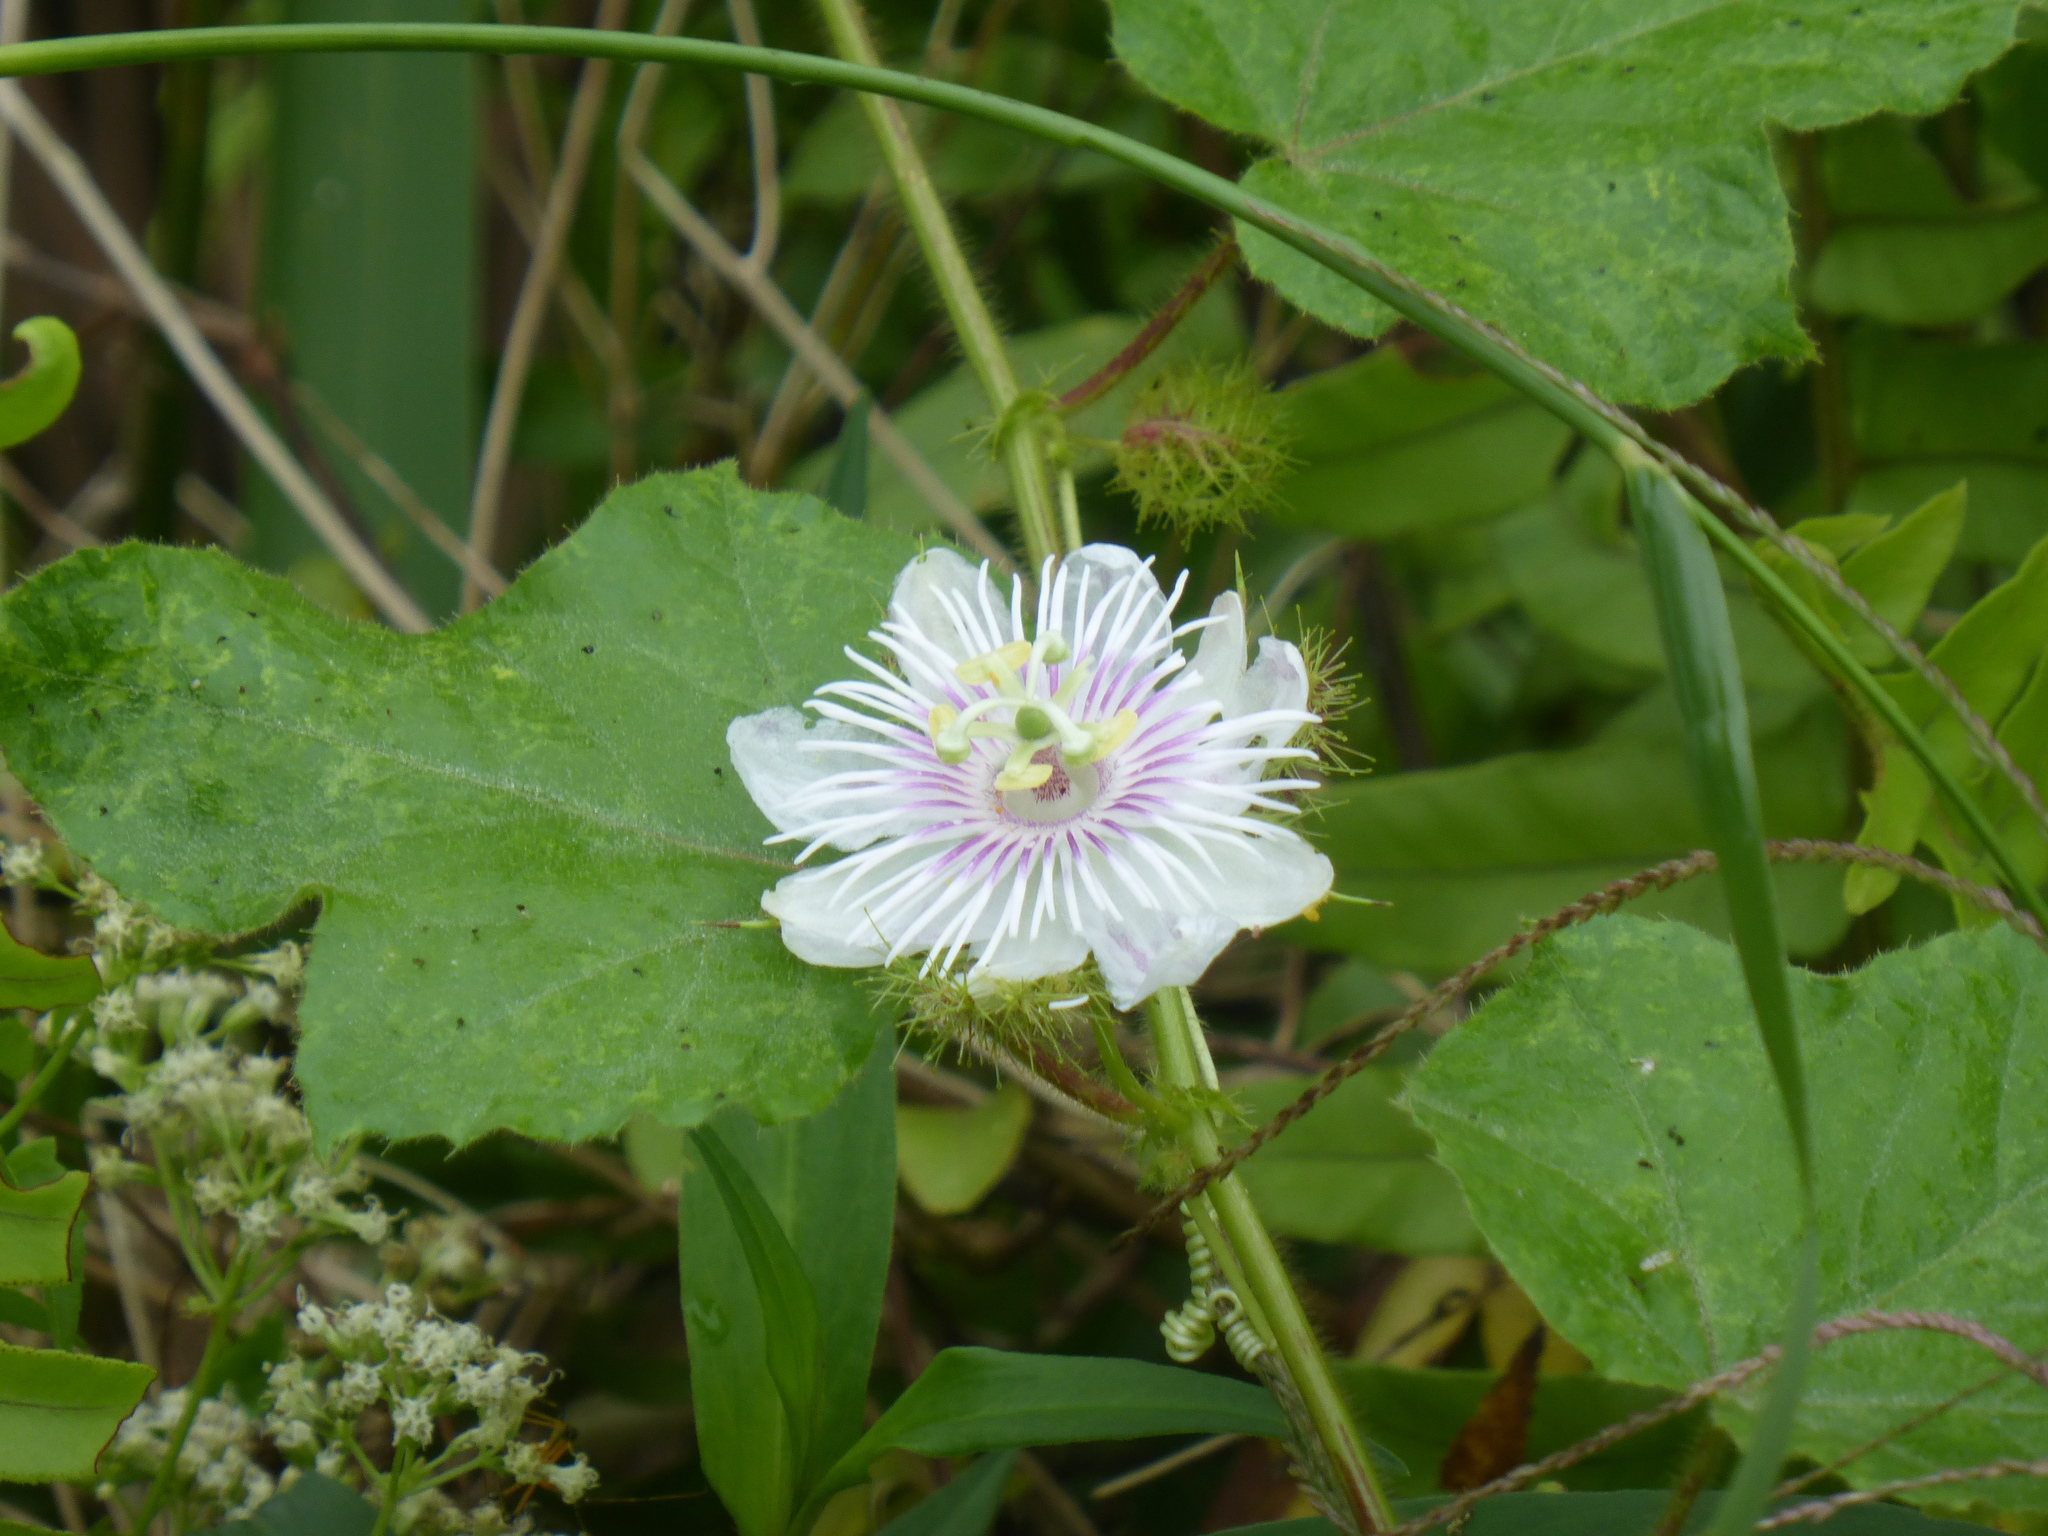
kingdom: Plantae
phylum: Tracheophyta
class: Magnoliopsida
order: Malpighiales
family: Passifloraceae
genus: Passiflora
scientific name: Passiflora foetida
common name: Fetid passionflower
